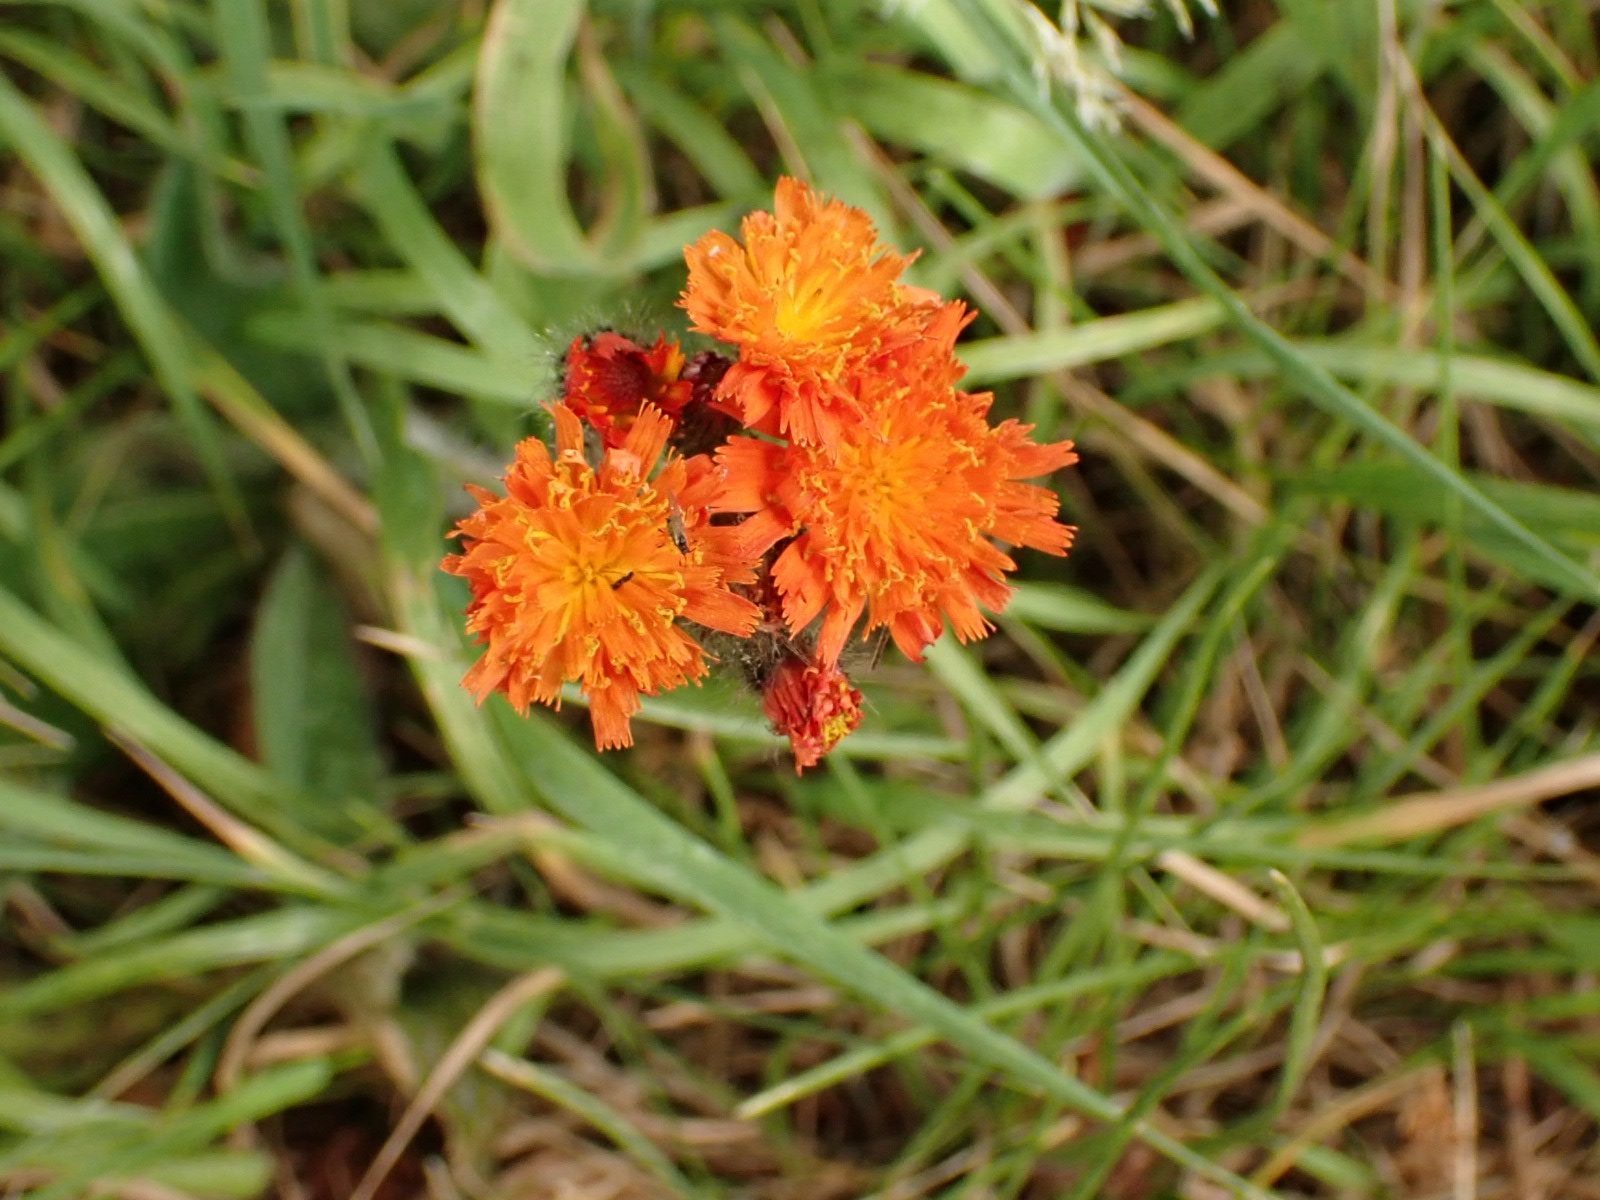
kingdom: Plantae
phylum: Tracheophyta
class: Magnoliopsida
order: Asterales
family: Asteraceae
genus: Pilosella
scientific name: Pilosella aurantiaca
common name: Fox-and-cubs
